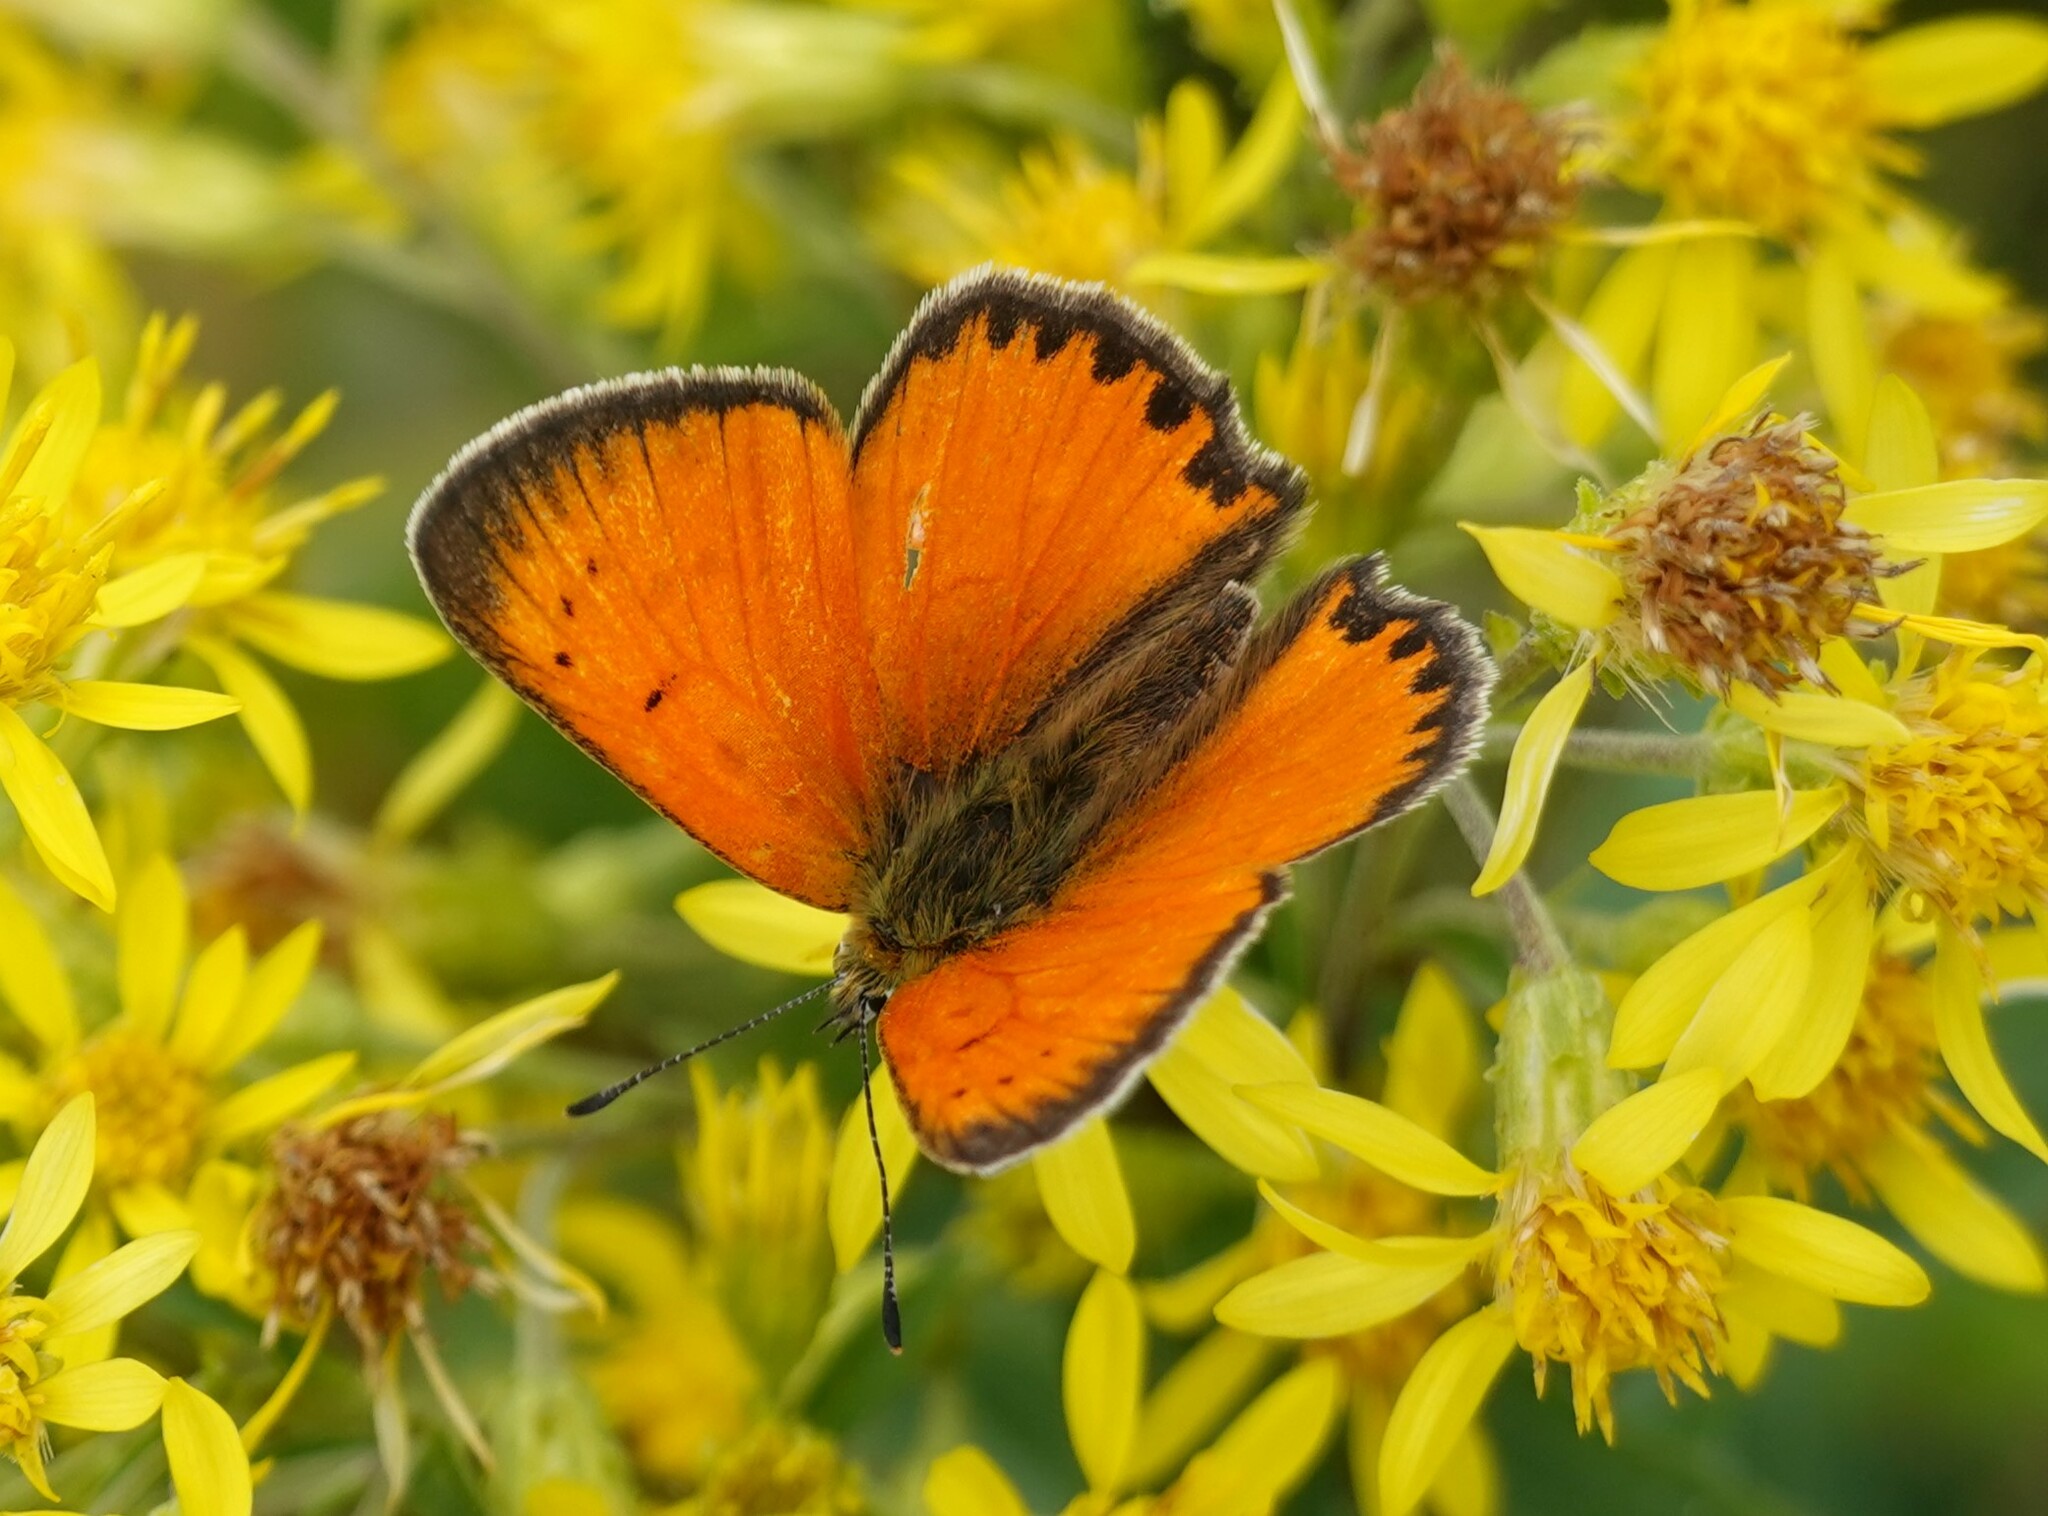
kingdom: Animalia
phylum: Arthropoda
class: Insecta
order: Lepidoptera
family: Lycaenidae
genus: Lycaena
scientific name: Lycaena virgaureae
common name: Scarce copper
